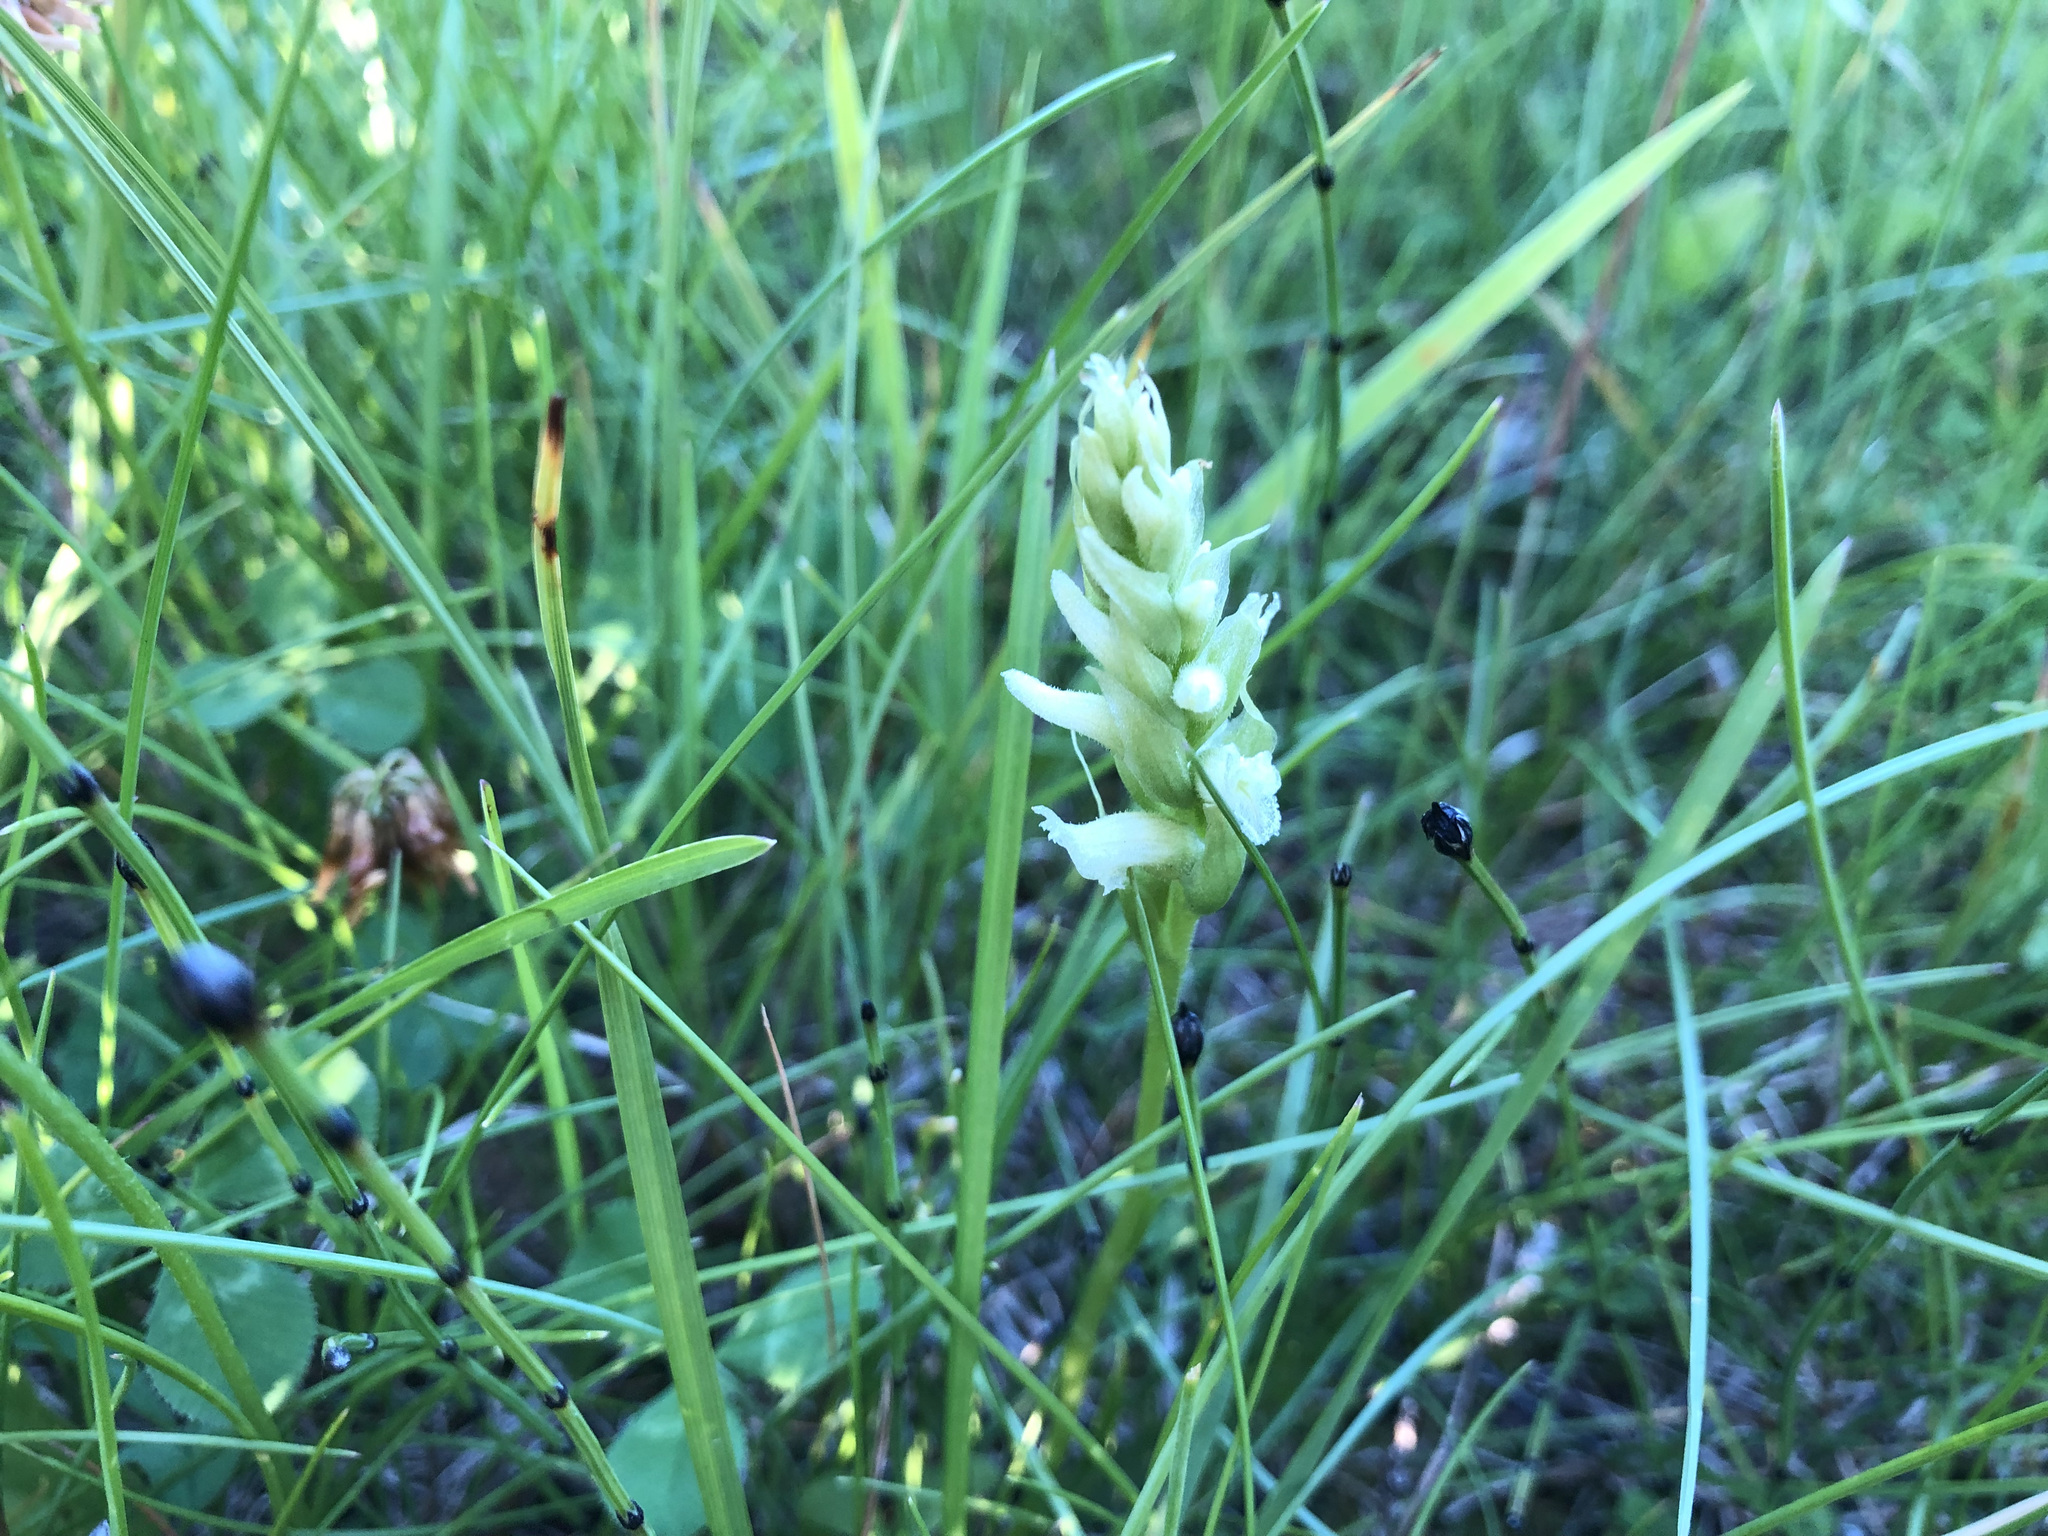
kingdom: Plantae
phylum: Tracheophyta
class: Liliopsida
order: Asparagales
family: Orchidaceae
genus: Spiranthes
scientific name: Spiranthes romanzoffiana
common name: Irish lady's-tresses
